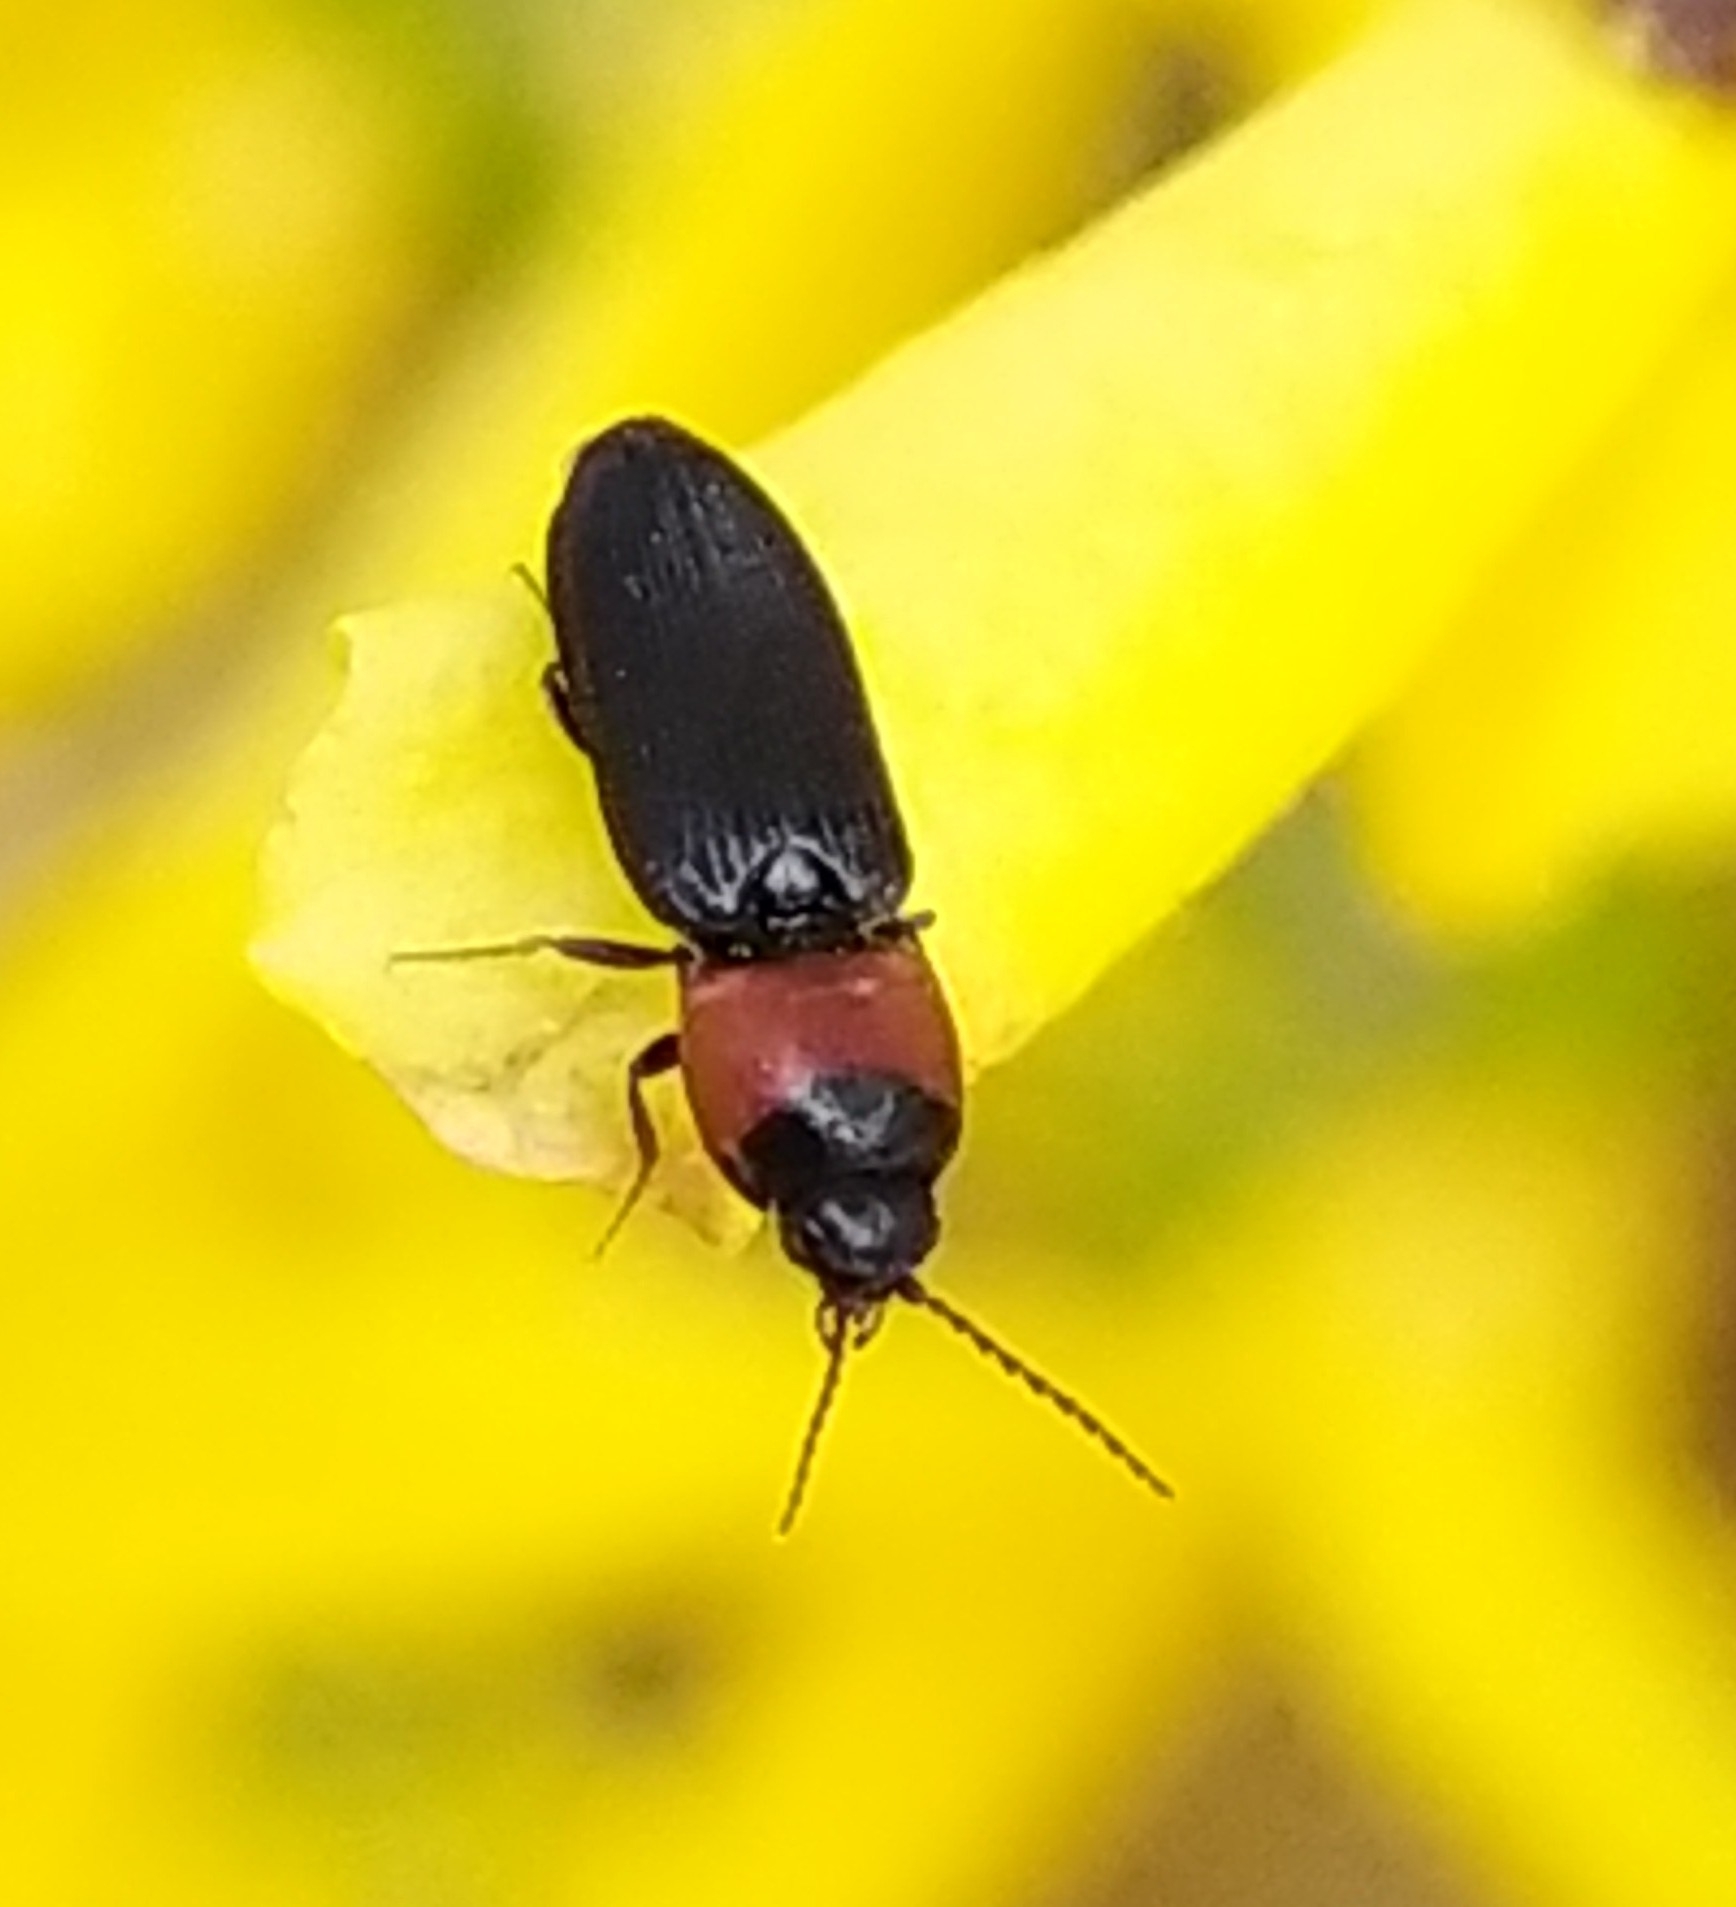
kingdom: Animalia
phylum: Arthropoda
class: Insecta
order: Coleoptera
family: Elateridae
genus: Cardiophorus
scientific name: Cardiophorus ruficollis
